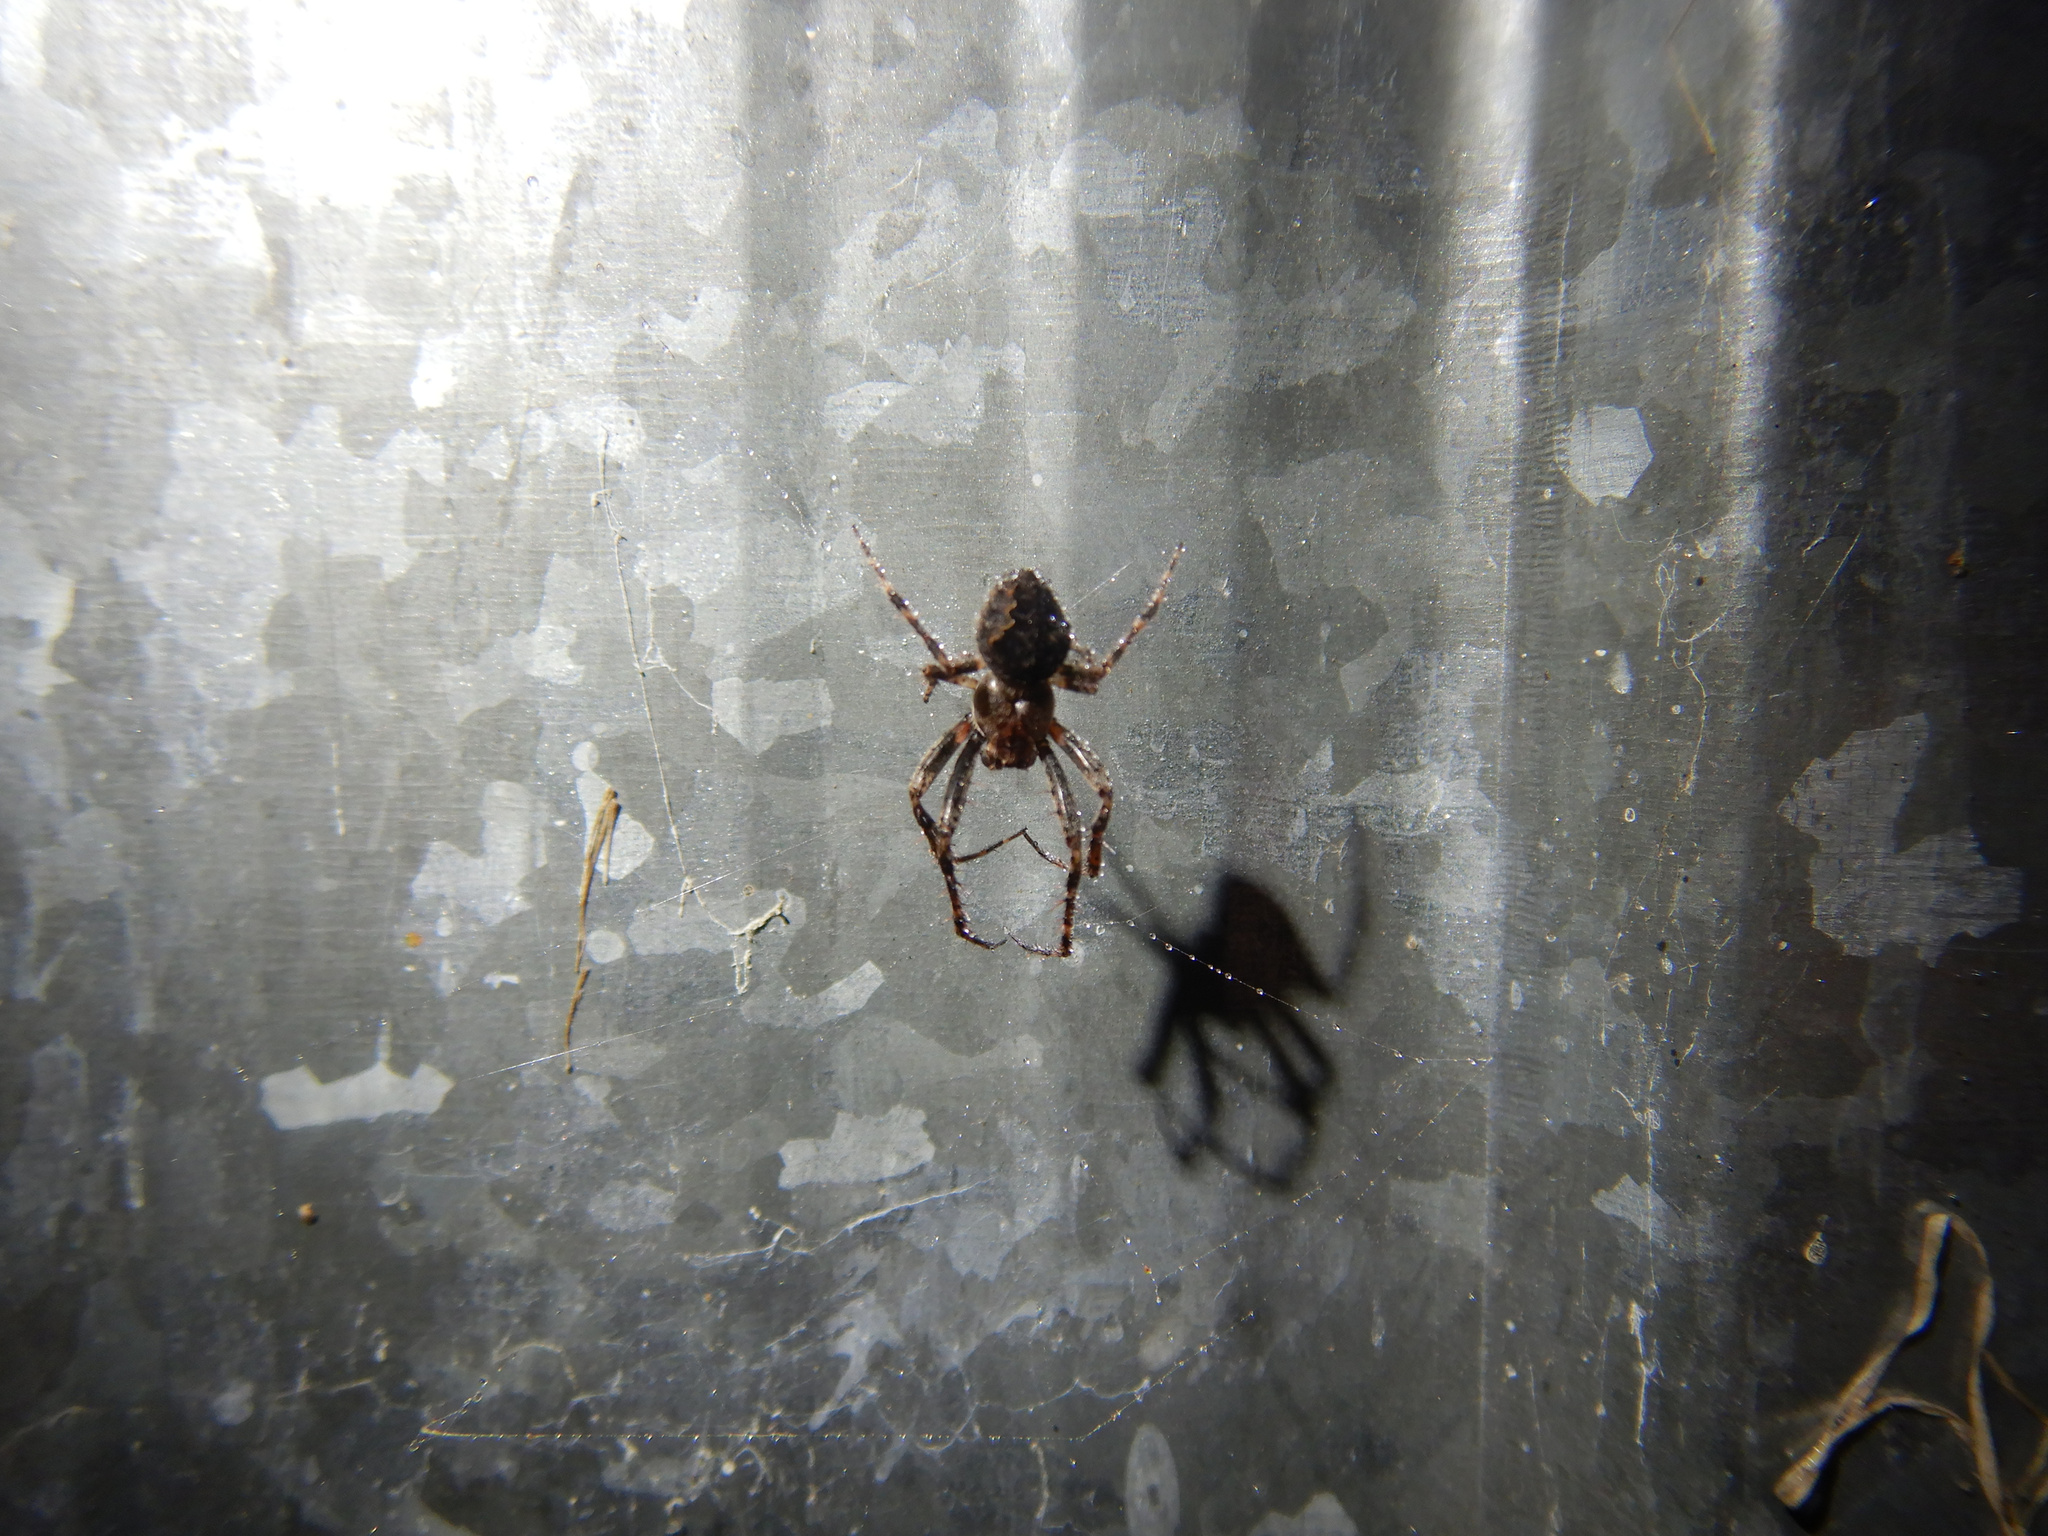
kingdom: Animalia
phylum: Arthropoda
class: Arachnida
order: Araneae
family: Araneidae
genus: Eriophora
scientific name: Eriophora pustulosa
